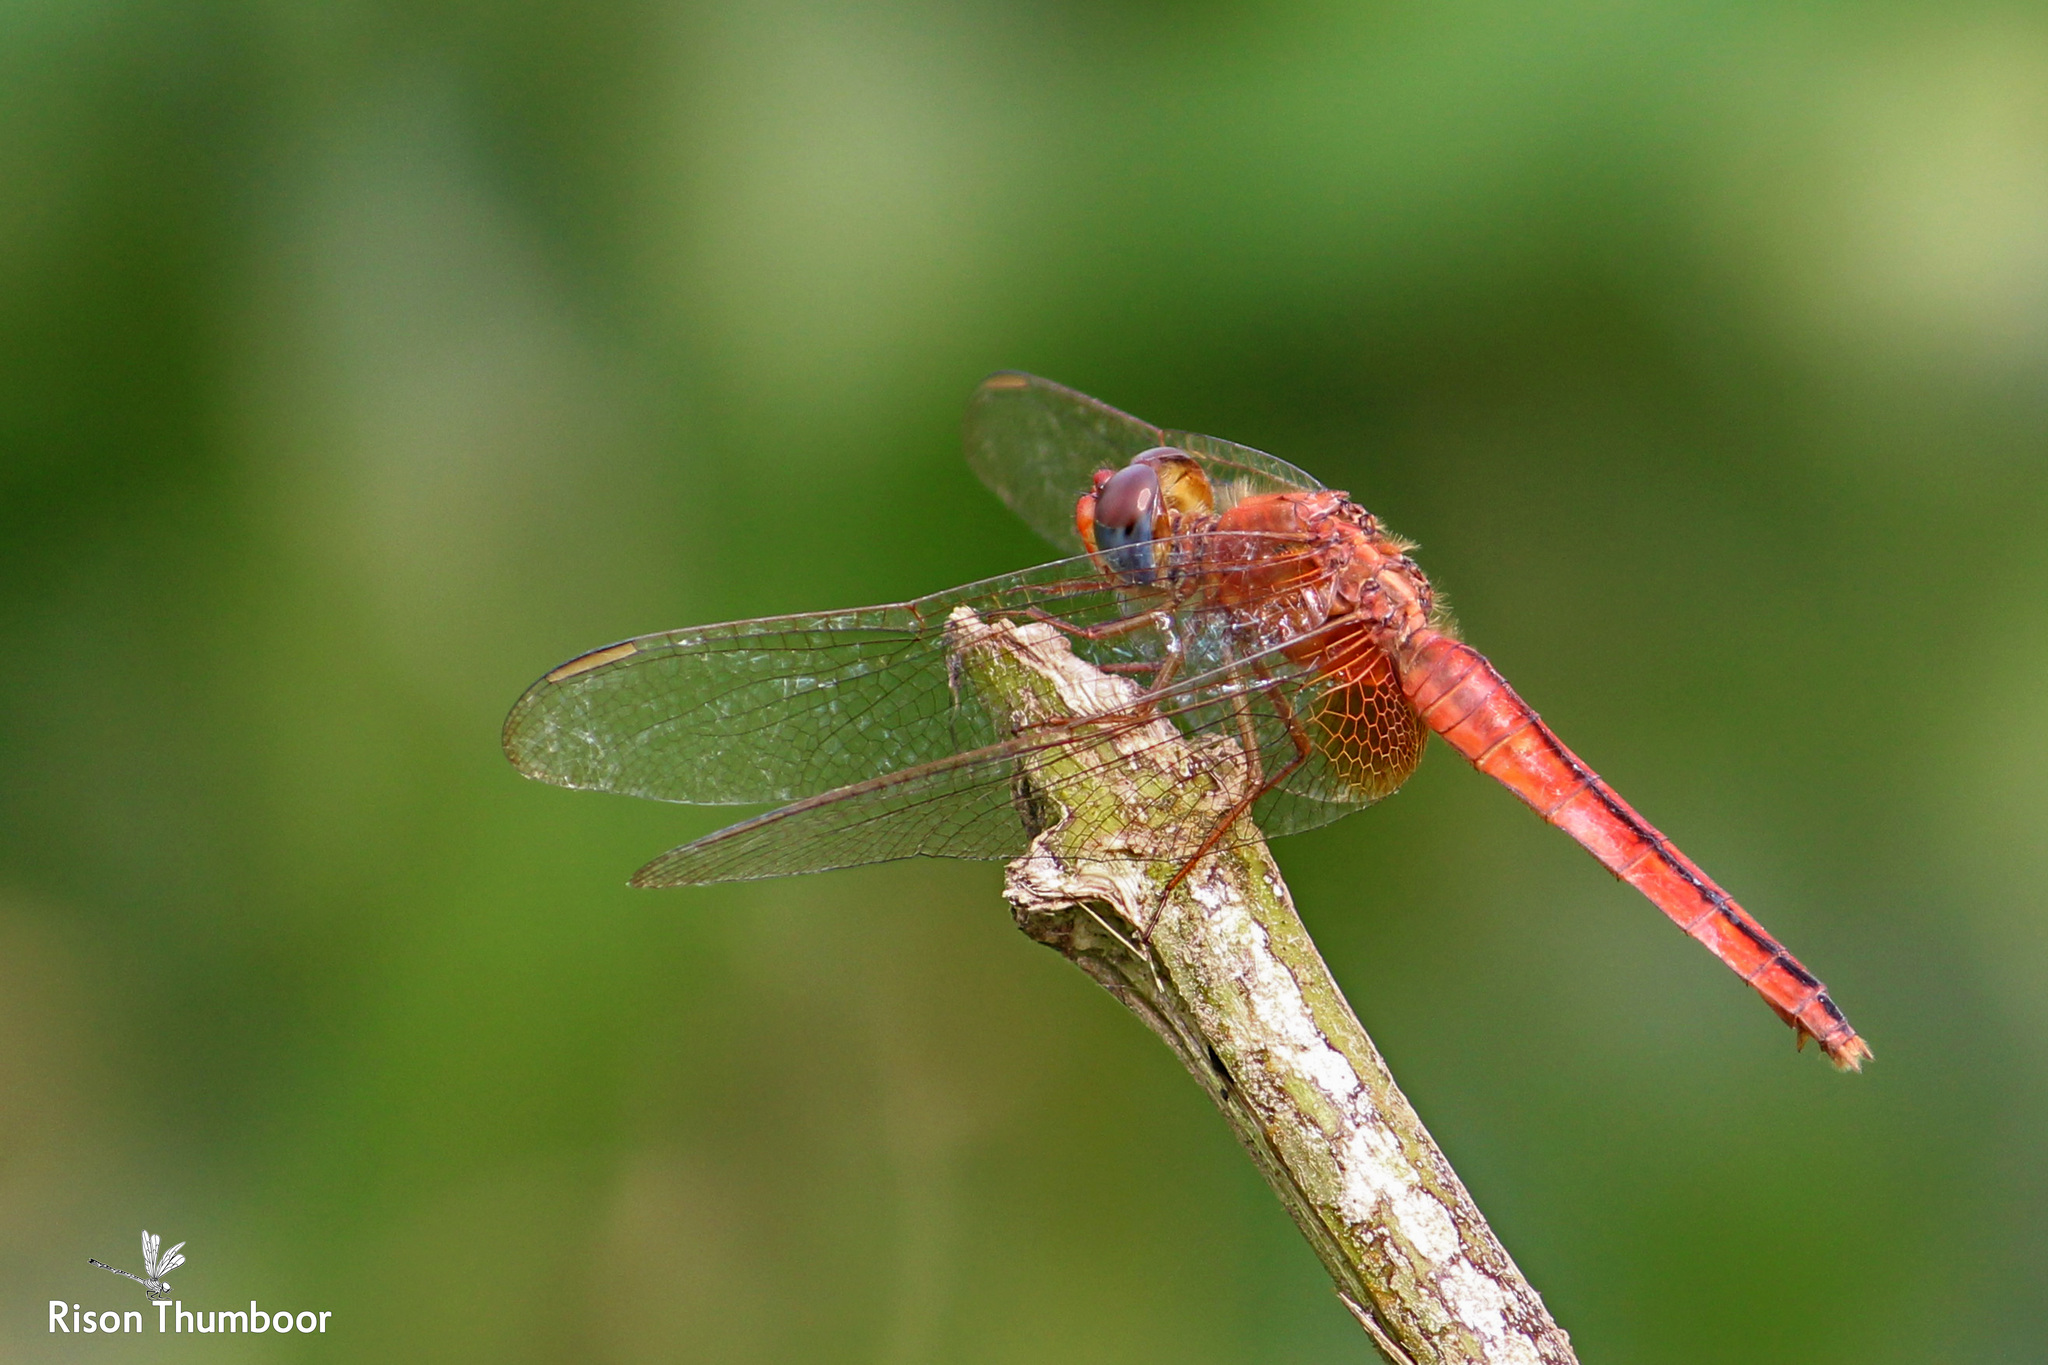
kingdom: Animalia
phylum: Arthropoda
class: Insecta
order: Odonata
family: Libellulidae
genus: Crocothemis
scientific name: Crocothemis servilia
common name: Scarlet skimmer
